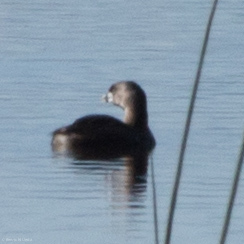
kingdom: Animalia
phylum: Chordata
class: Aves
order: Podicipediformes
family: Podicipedidae
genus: Podilymbus
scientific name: Podilymbus podiceps
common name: Pied-billed grebe
